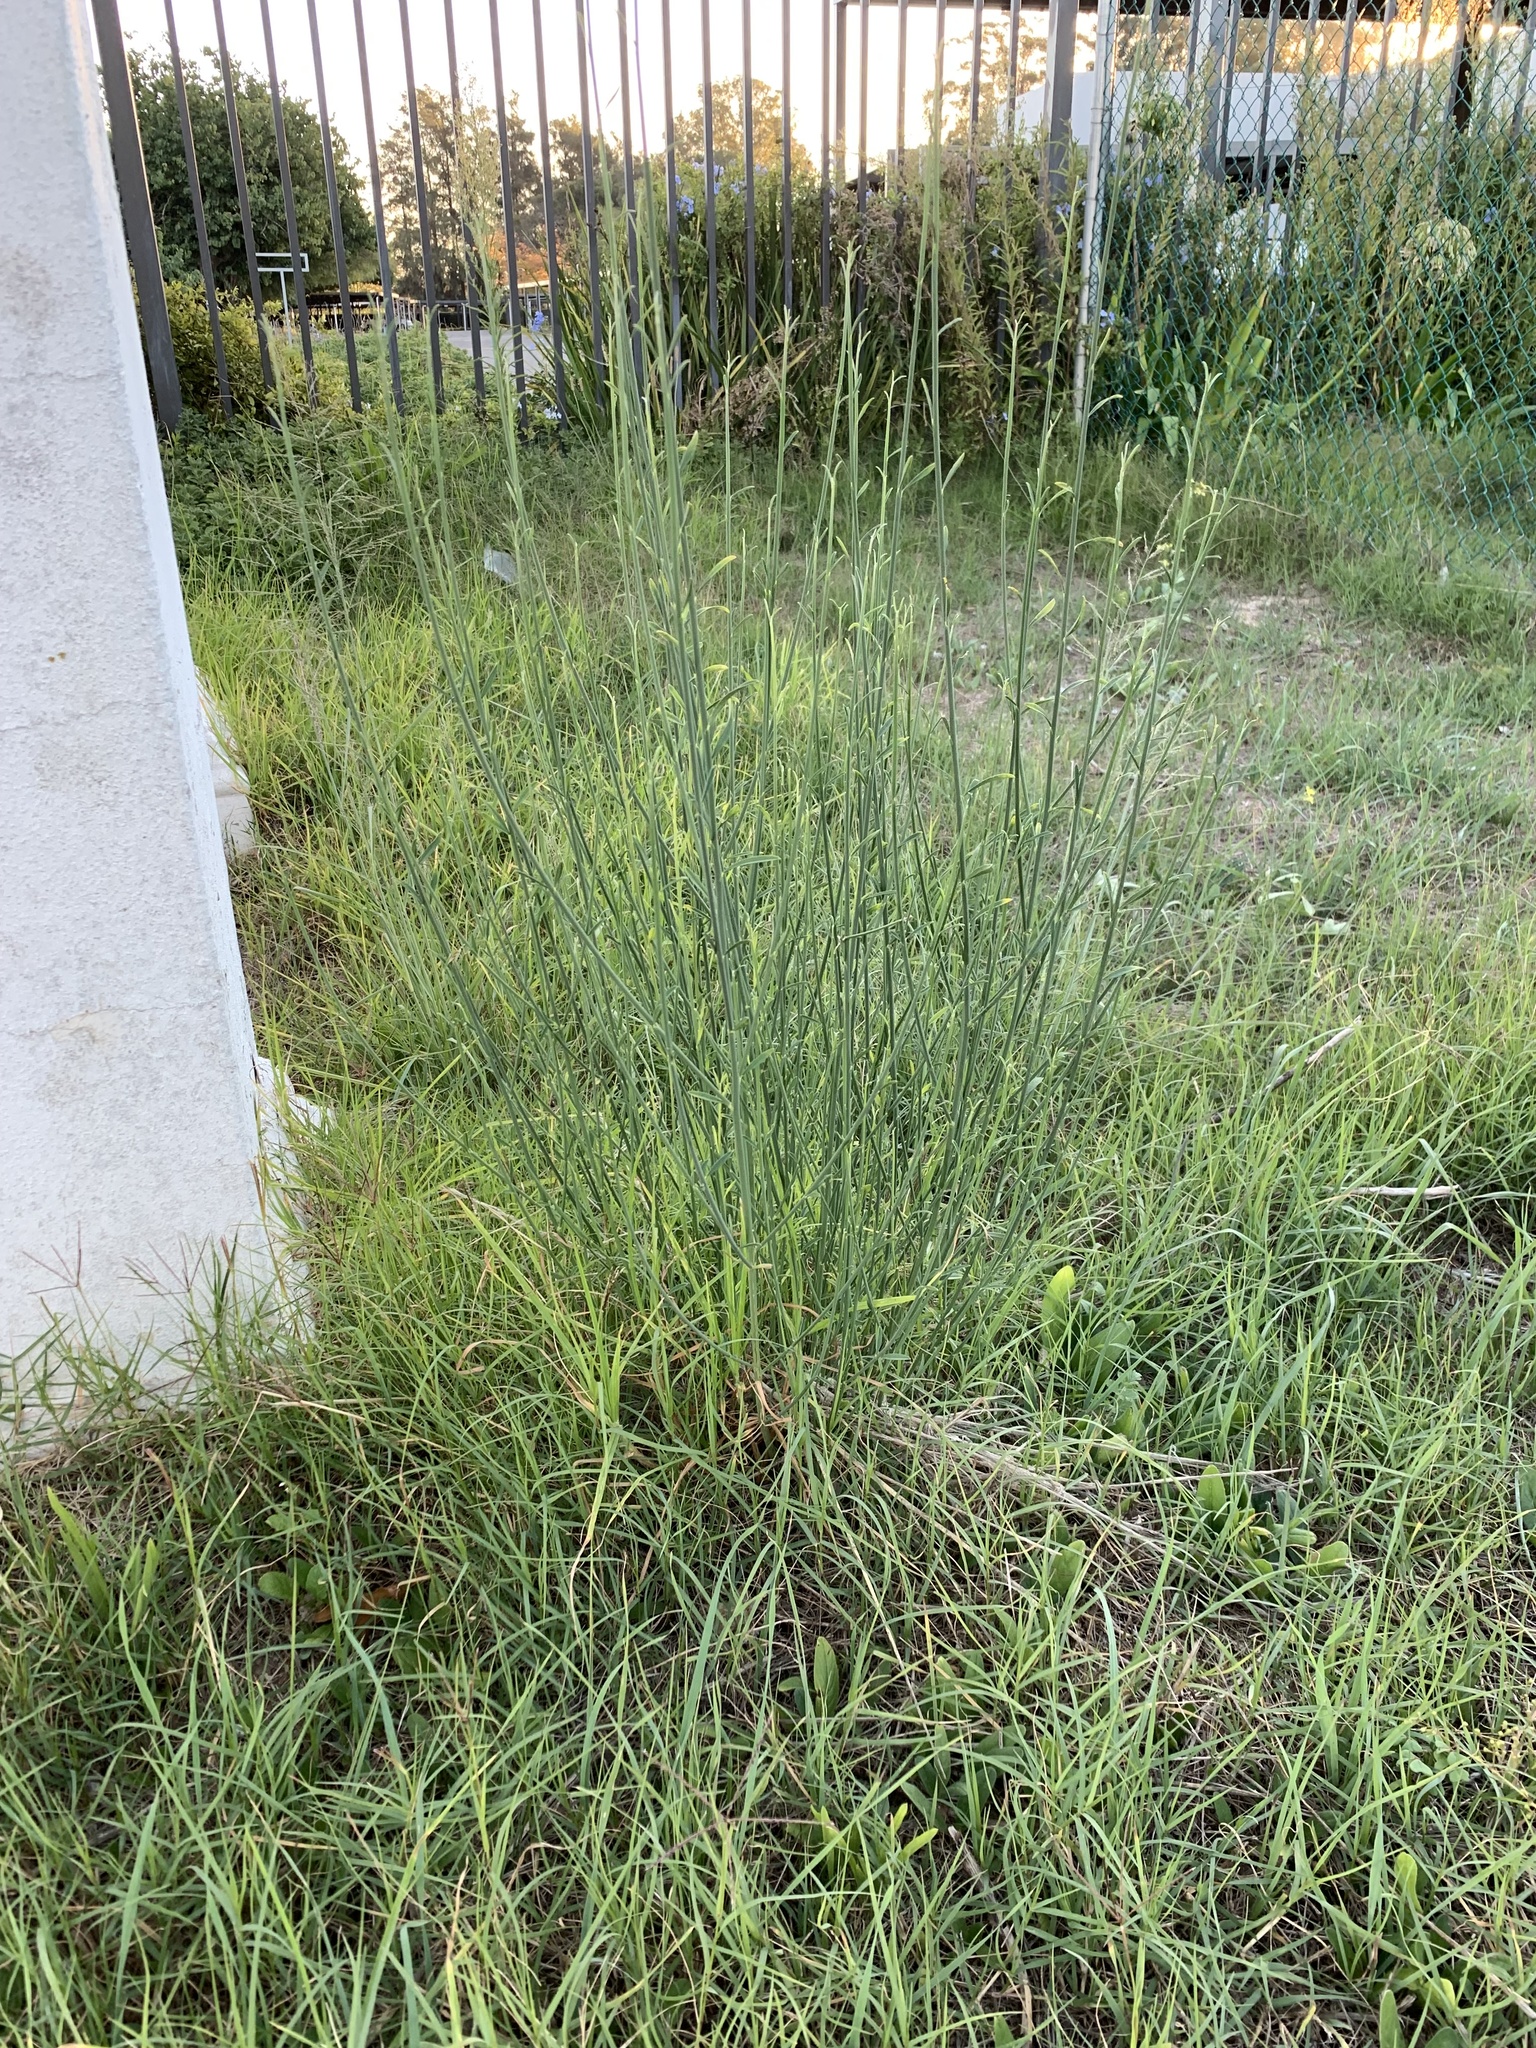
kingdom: Plantae
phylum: Tracheophyta
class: Magnoliopsida
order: Fabales
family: Fabaceae
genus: Spartium
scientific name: Spartium junceum
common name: Spanish broom
